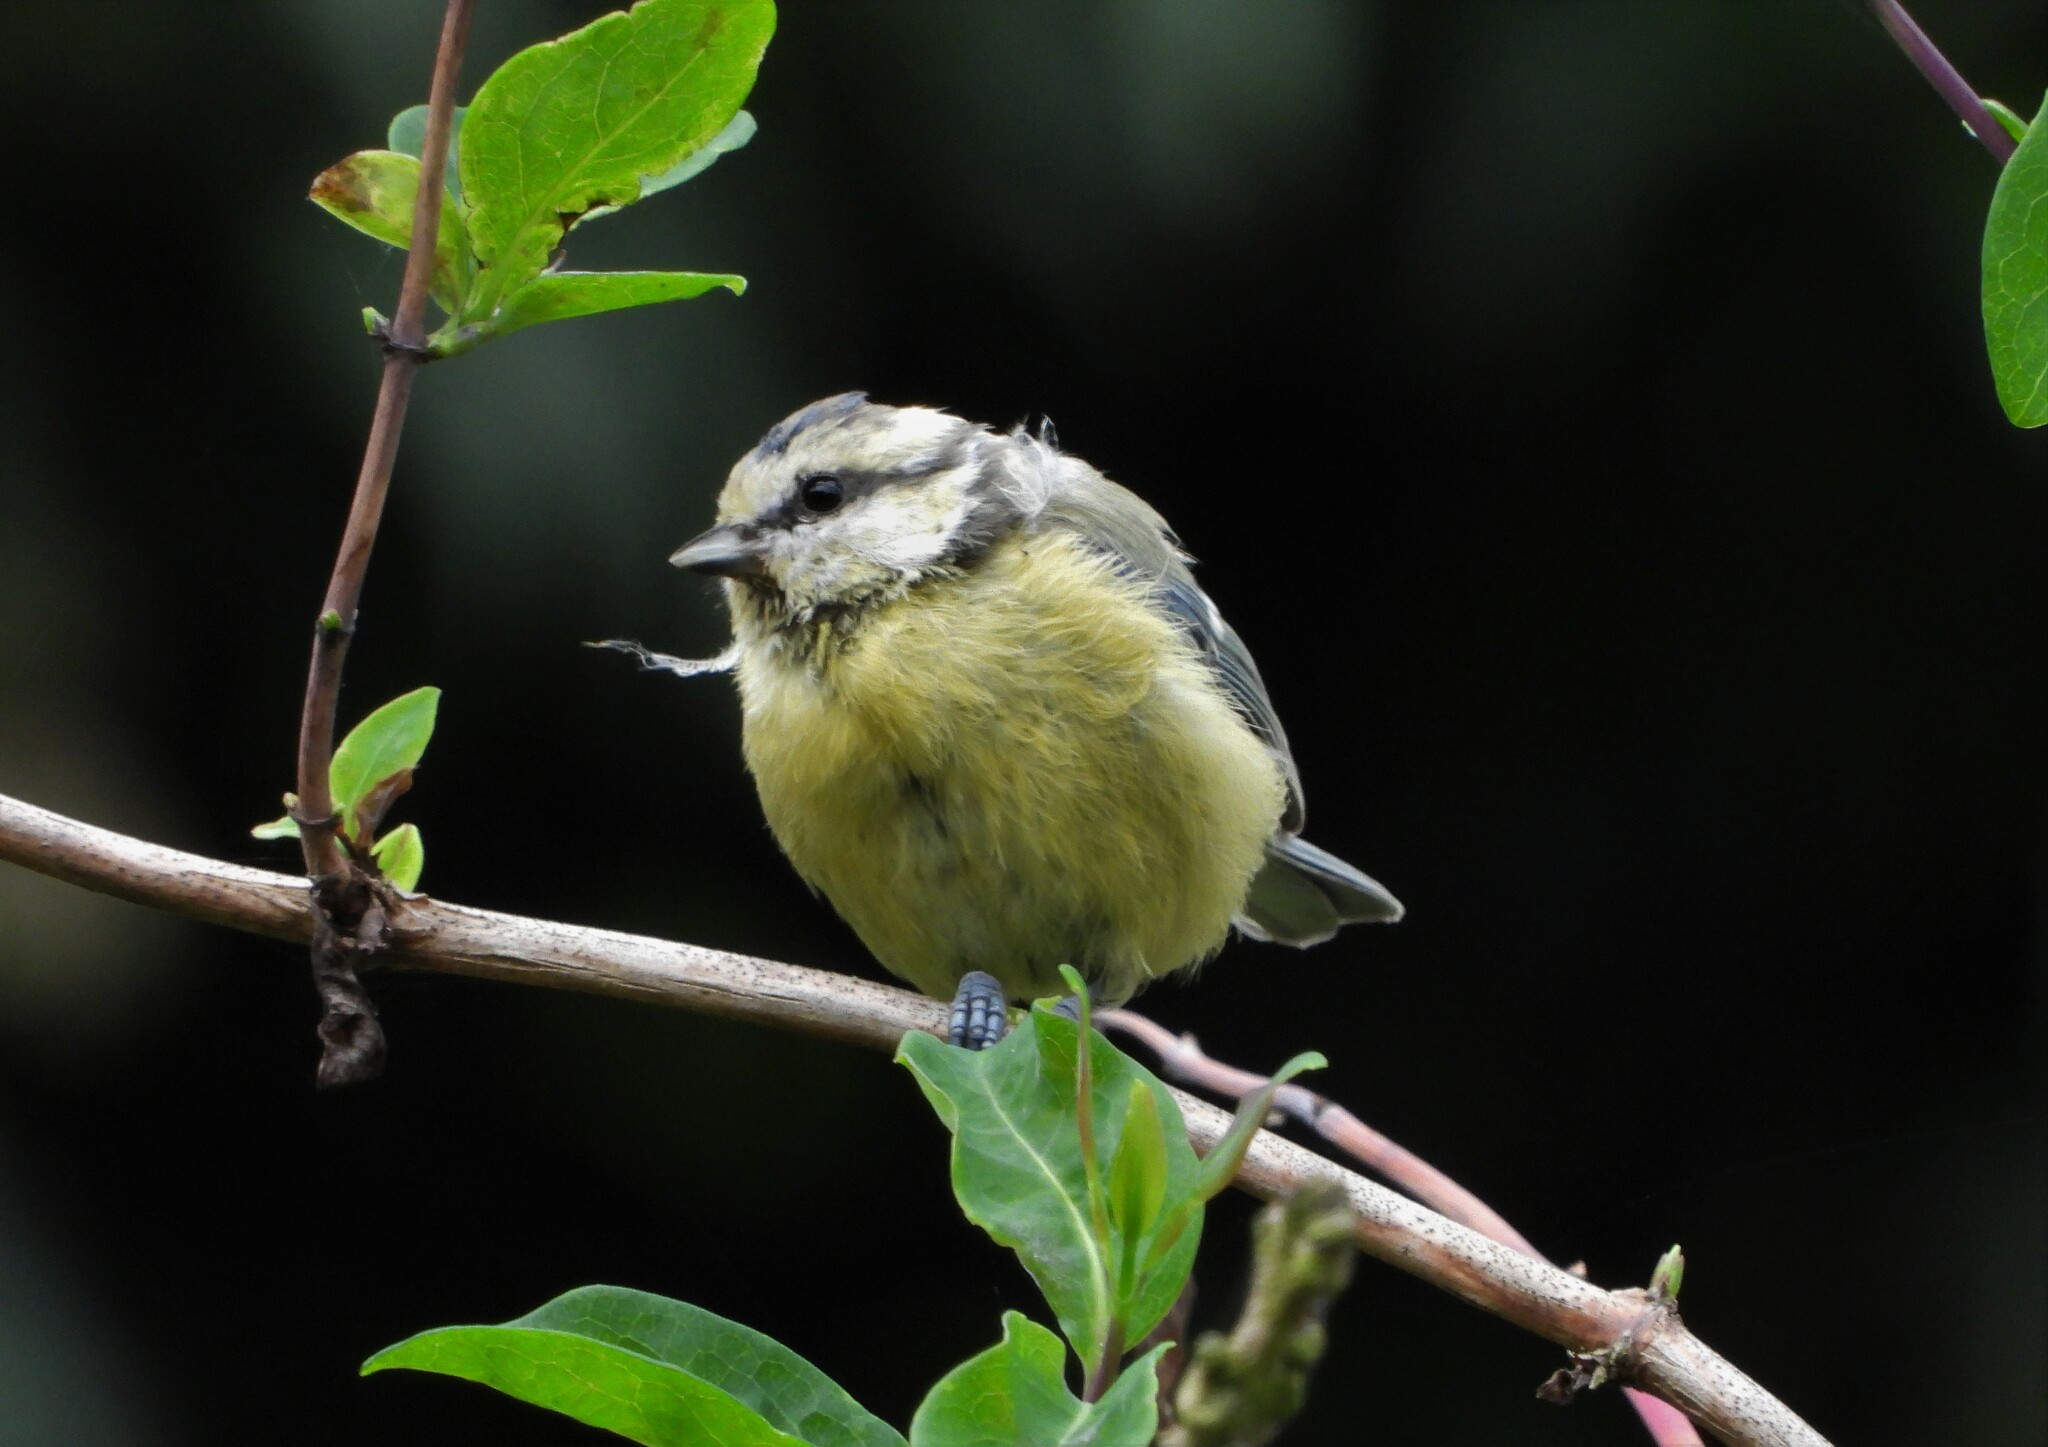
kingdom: Animalia
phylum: Chordata
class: Aves
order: Passeriformes
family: Paridae
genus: Cyanistes
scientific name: Cyanistes caeruleus
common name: Eurasian blue tit
